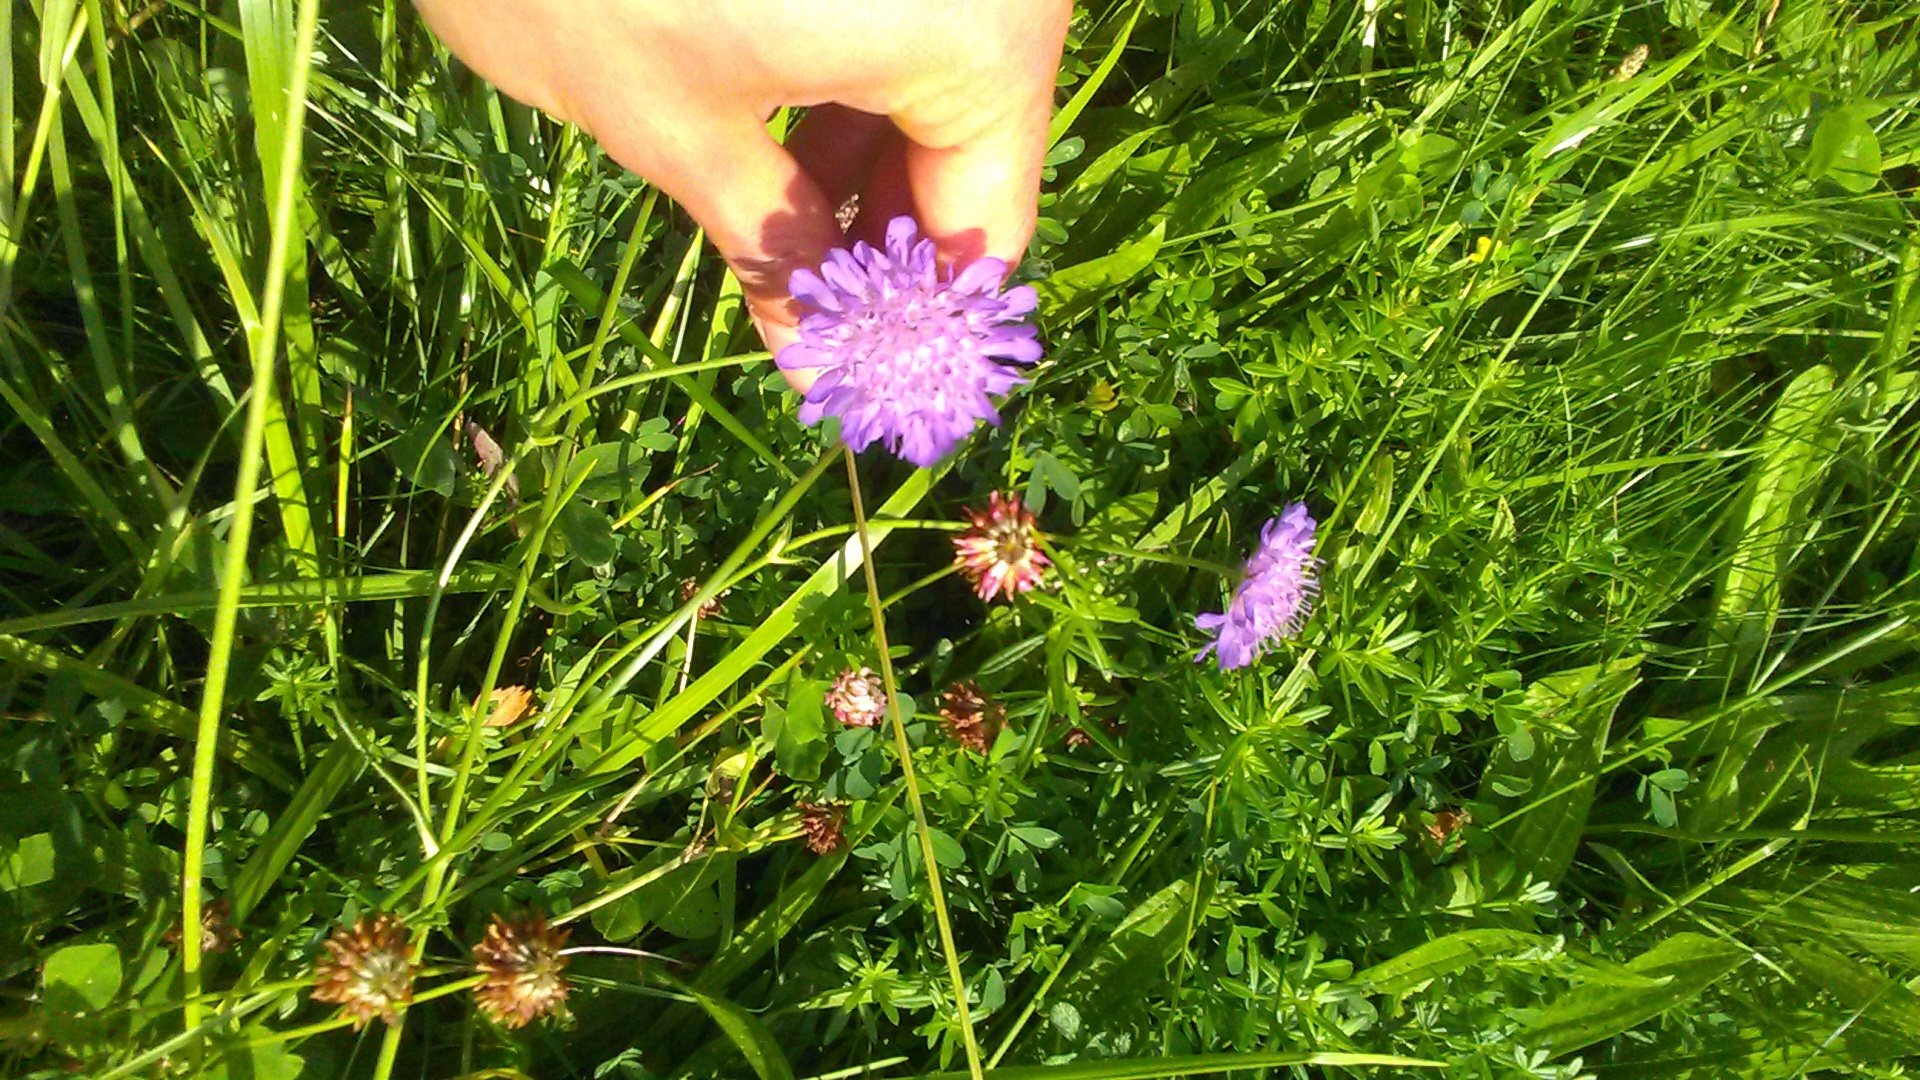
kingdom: Plantae
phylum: Tracheophyta
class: Magnoliopsida
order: Dipsacales
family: Caprifoliaceae
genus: Knautia
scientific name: Knautia arvensis
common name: Field scabiosa
